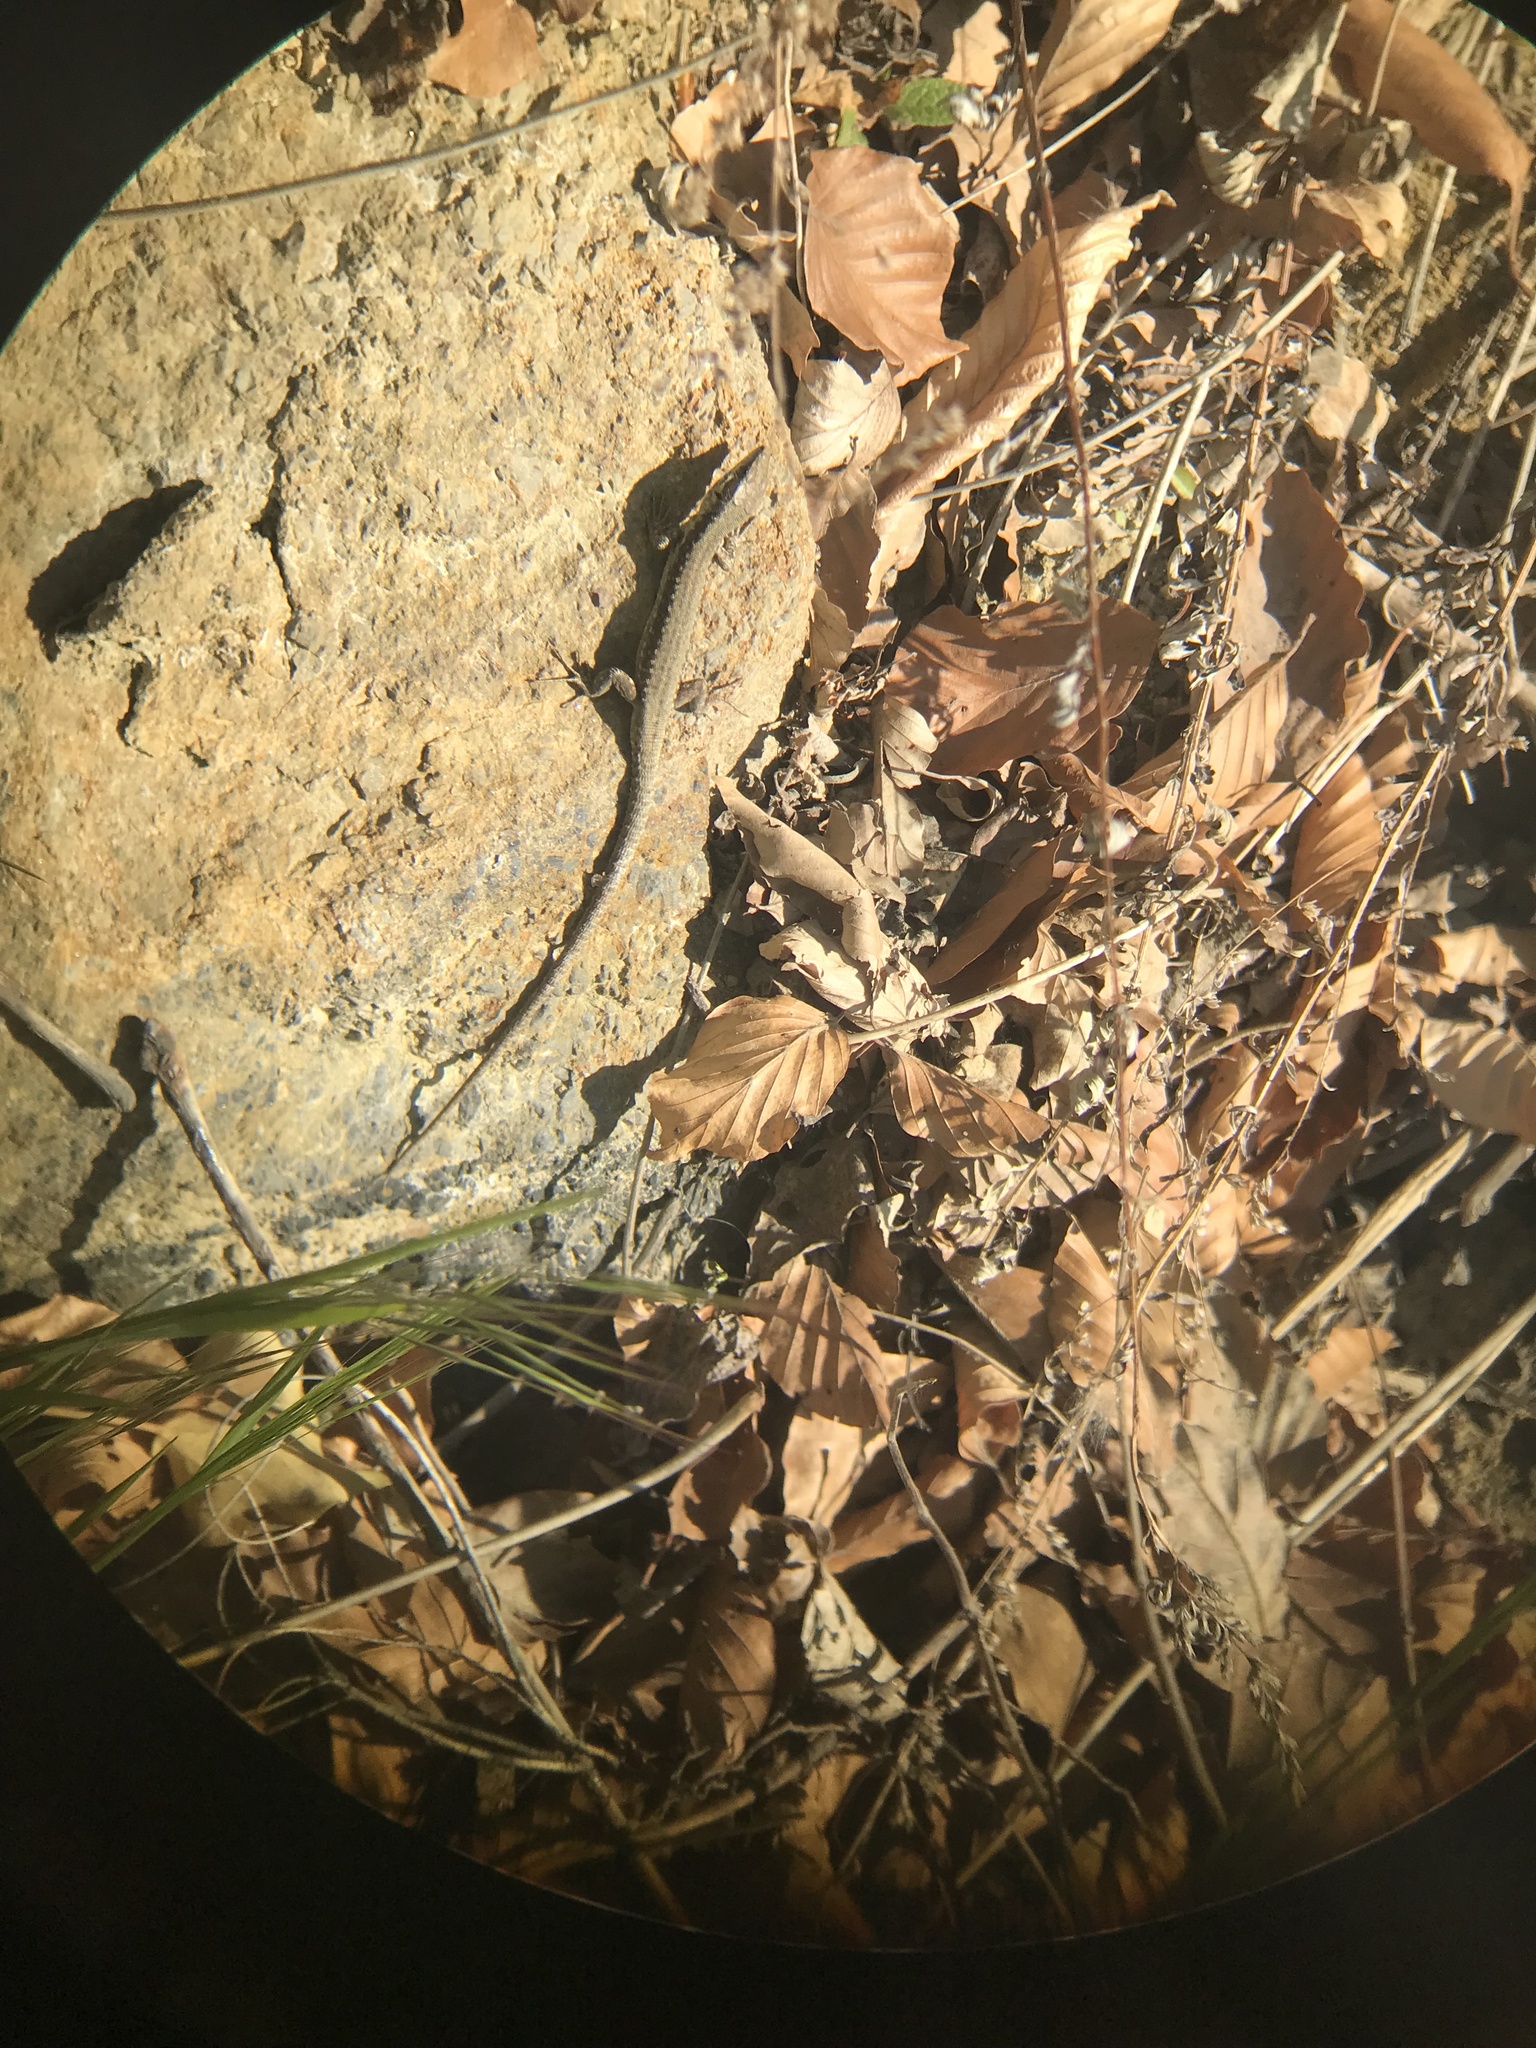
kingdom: Animalia
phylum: Chordata
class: Squamata
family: Lacertidae
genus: Podarcis
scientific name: Podarcis muralis
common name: Common wall lizard
